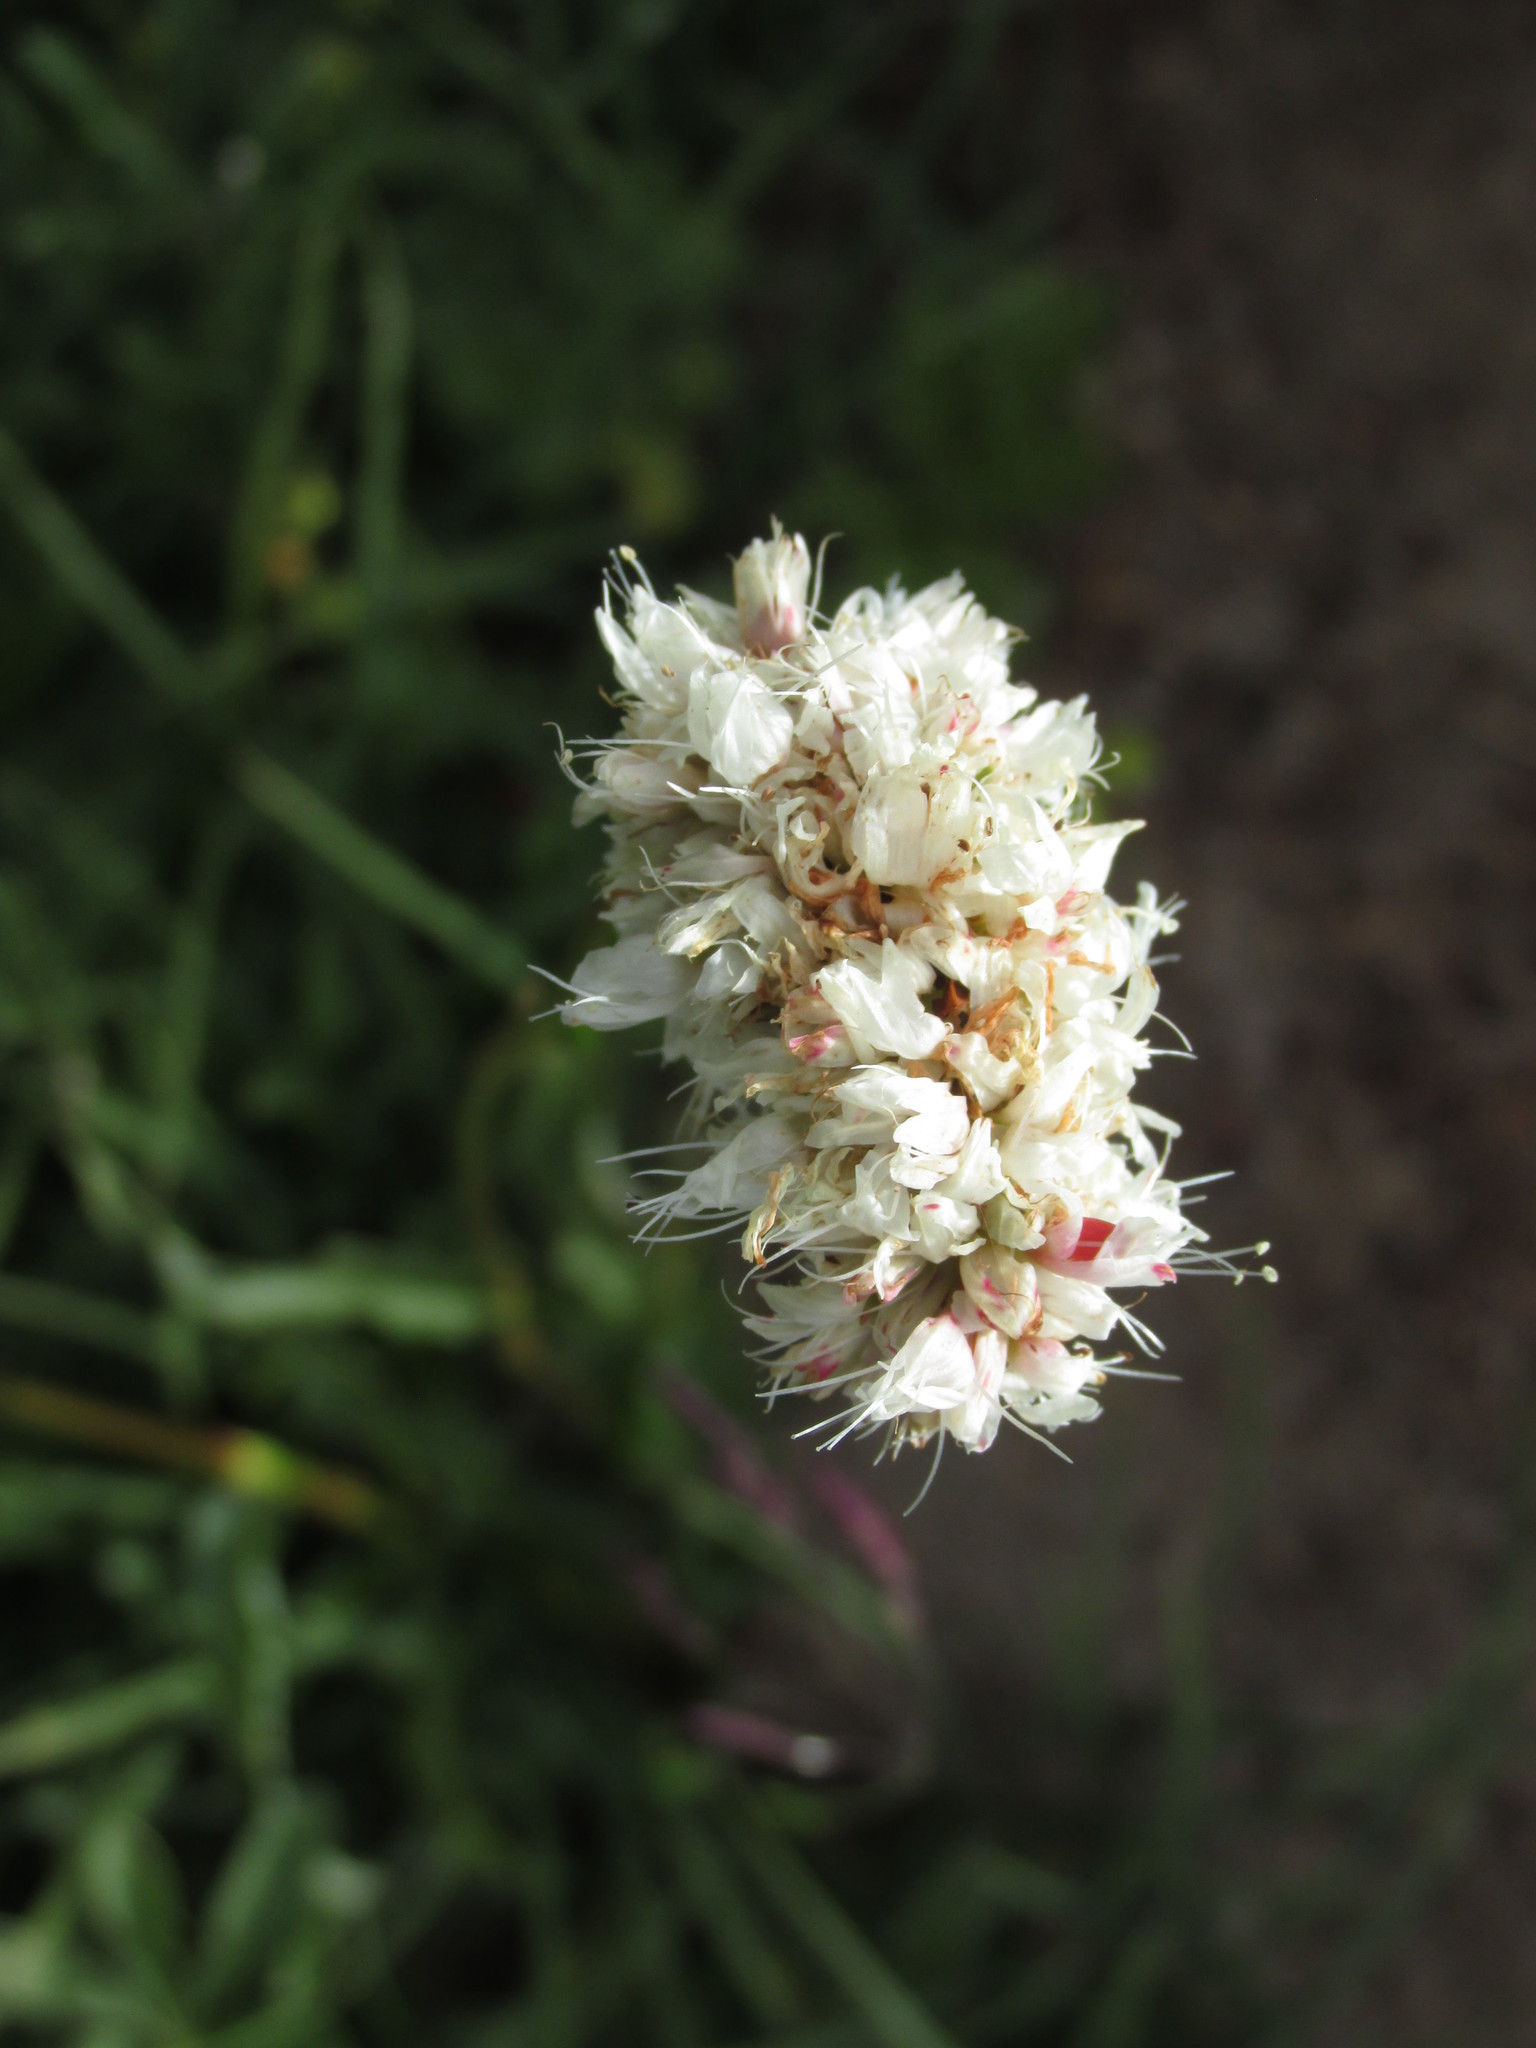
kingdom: Plantae
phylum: Tracheophyta
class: Magnoliopsida
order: Caryophyllales
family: Polygonaceae
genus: Bistorta
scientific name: Bistorta bistortoides
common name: American bistort
